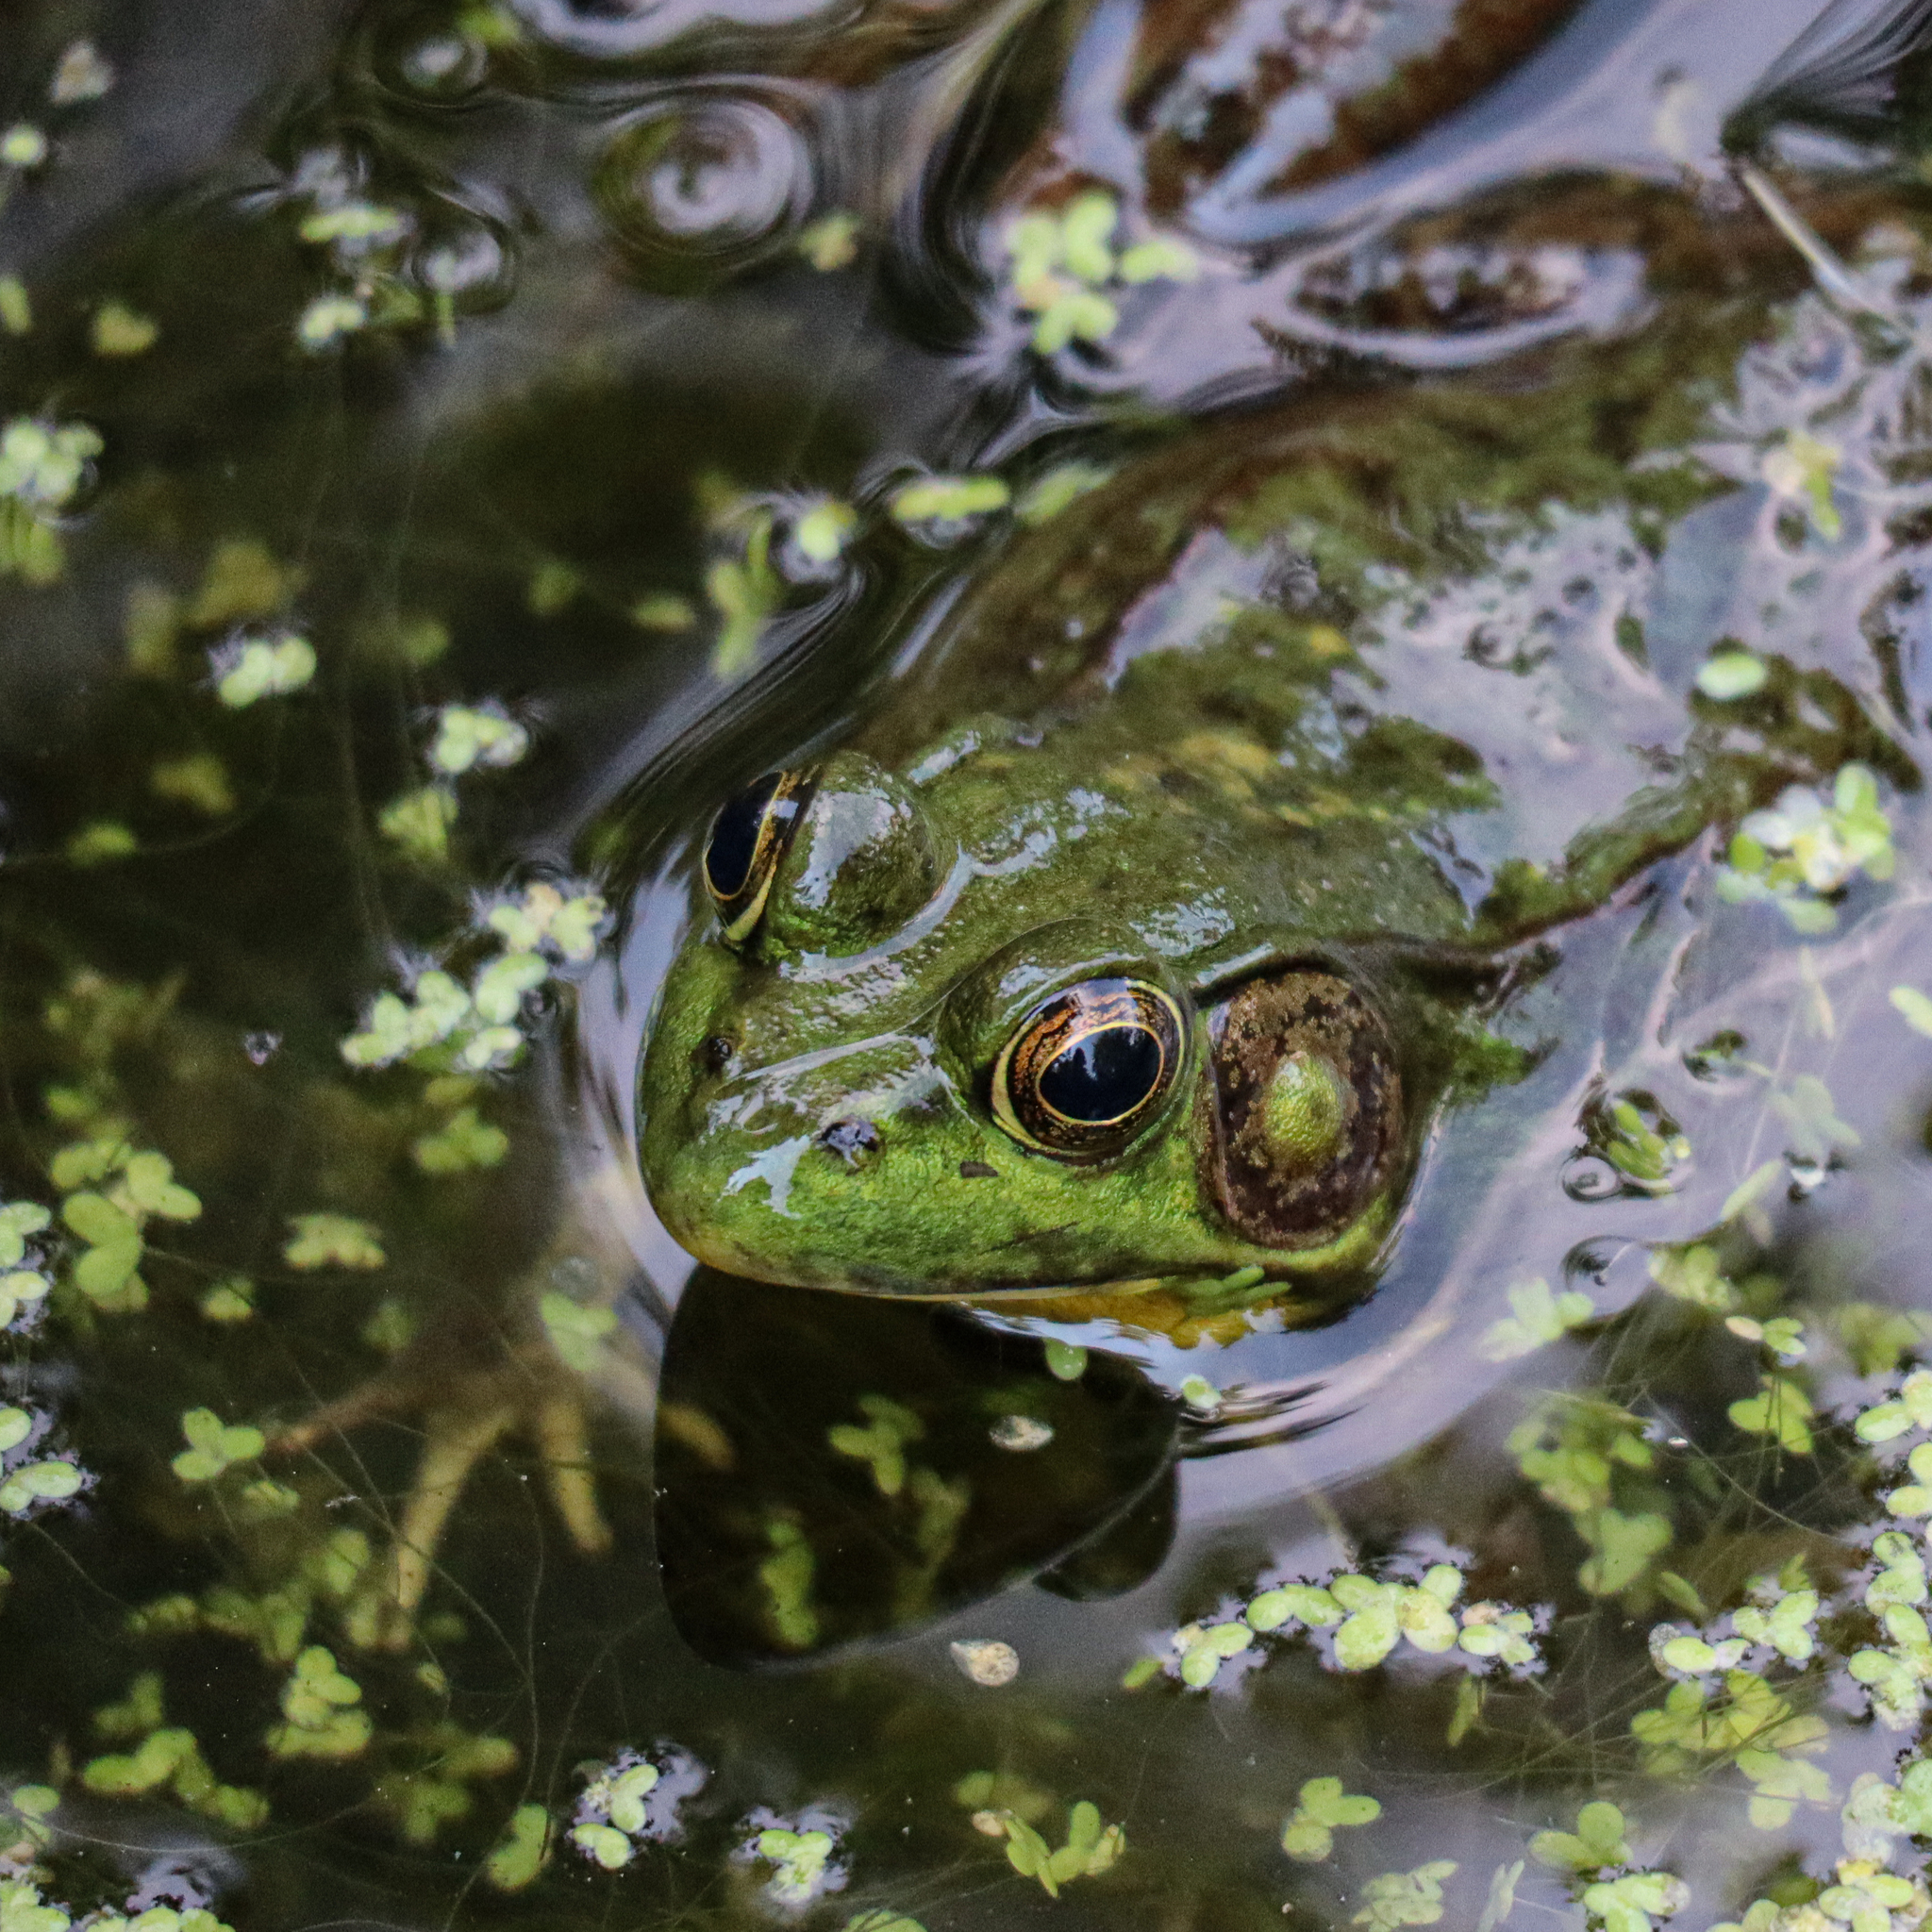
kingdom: Animalia
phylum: Chordata
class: Amphibia
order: Anura
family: Ranidae
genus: Lithobates
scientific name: Lithobates clamitans
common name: Green frog
